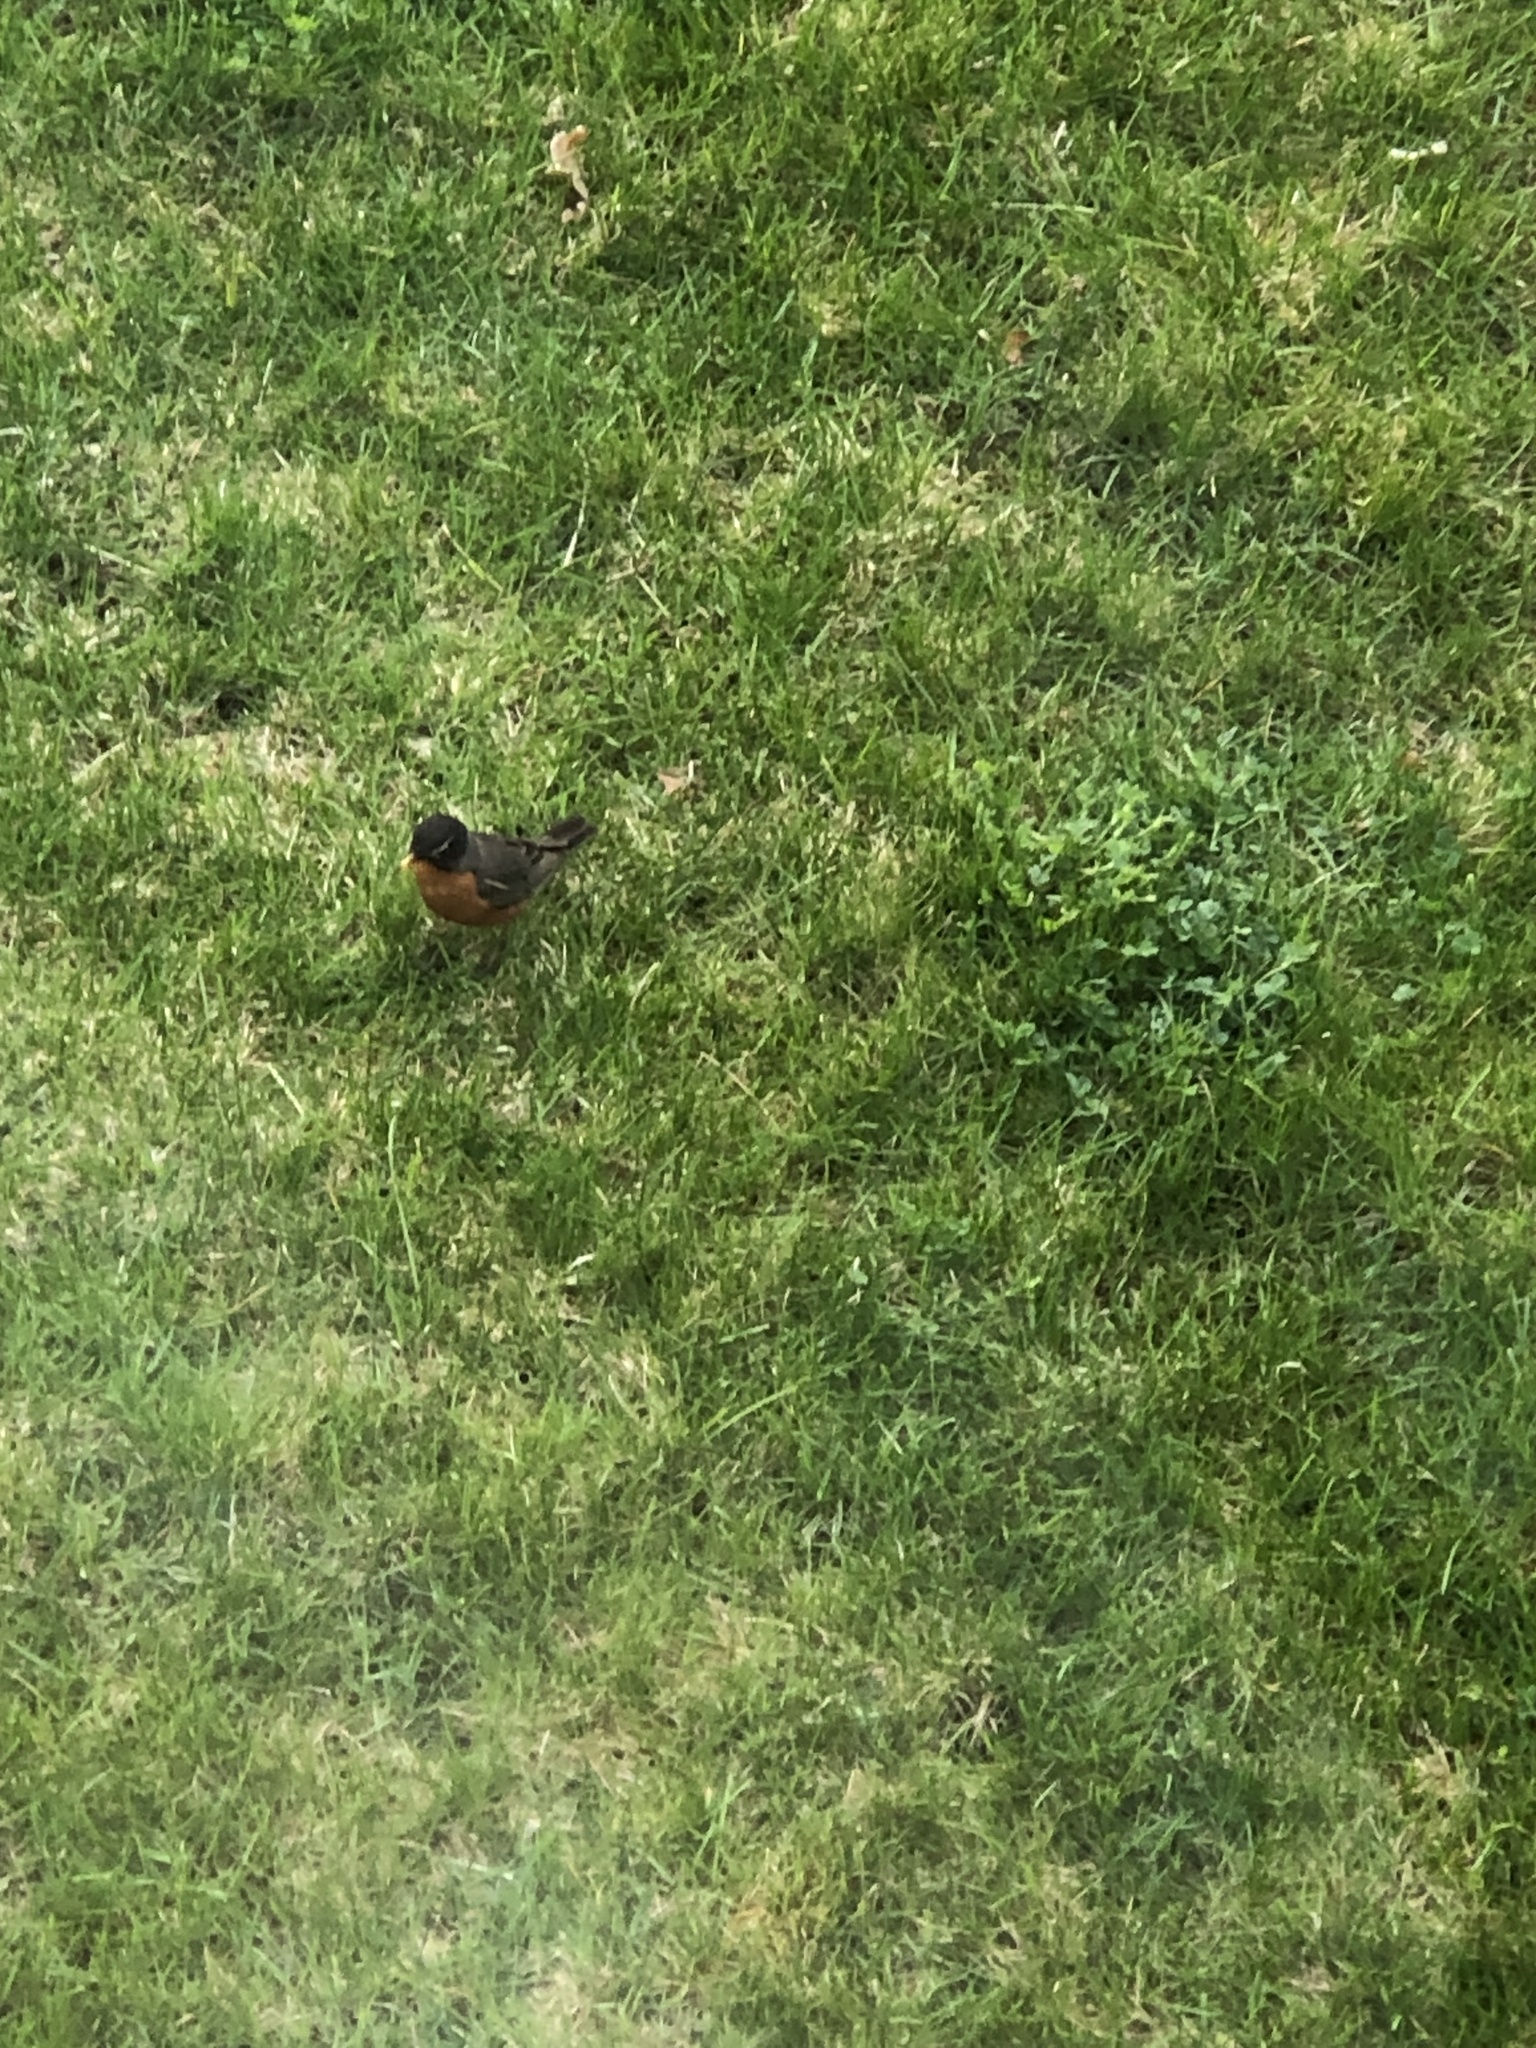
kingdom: Animalia
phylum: Chordata
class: Aves
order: Passeriformes
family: Turdidae
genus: Turdus
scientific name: Turdus migratorius
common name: American robin
